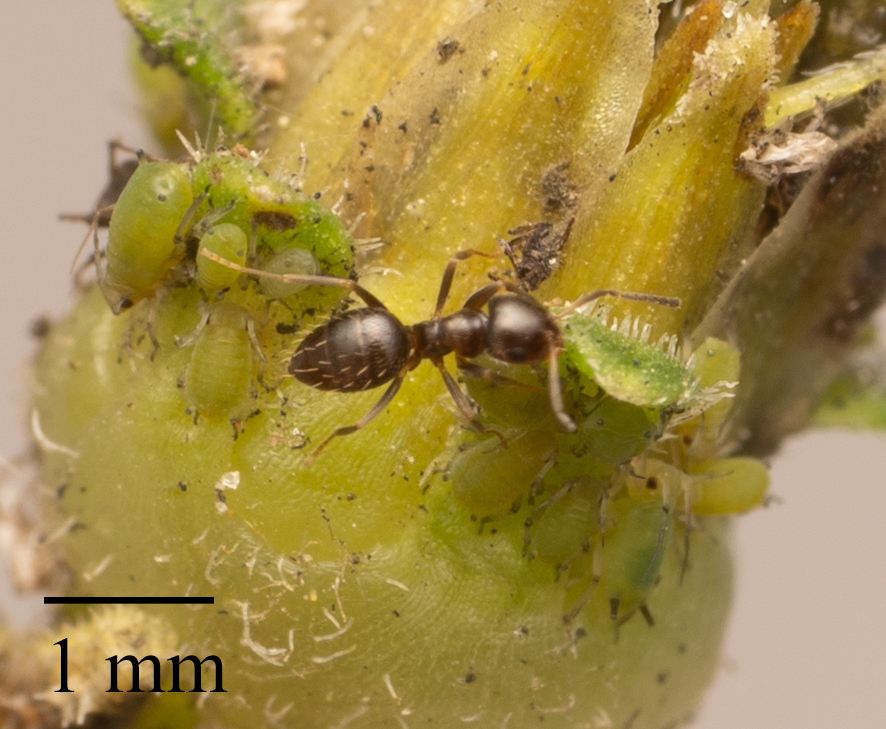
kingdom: Animalia
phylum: Arthropoda
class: Insecta
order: Hymenoptera
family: Formicidae
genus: Brachymyrmex
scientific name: Brachymyrmex patagonicus
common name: Dark rover ant
